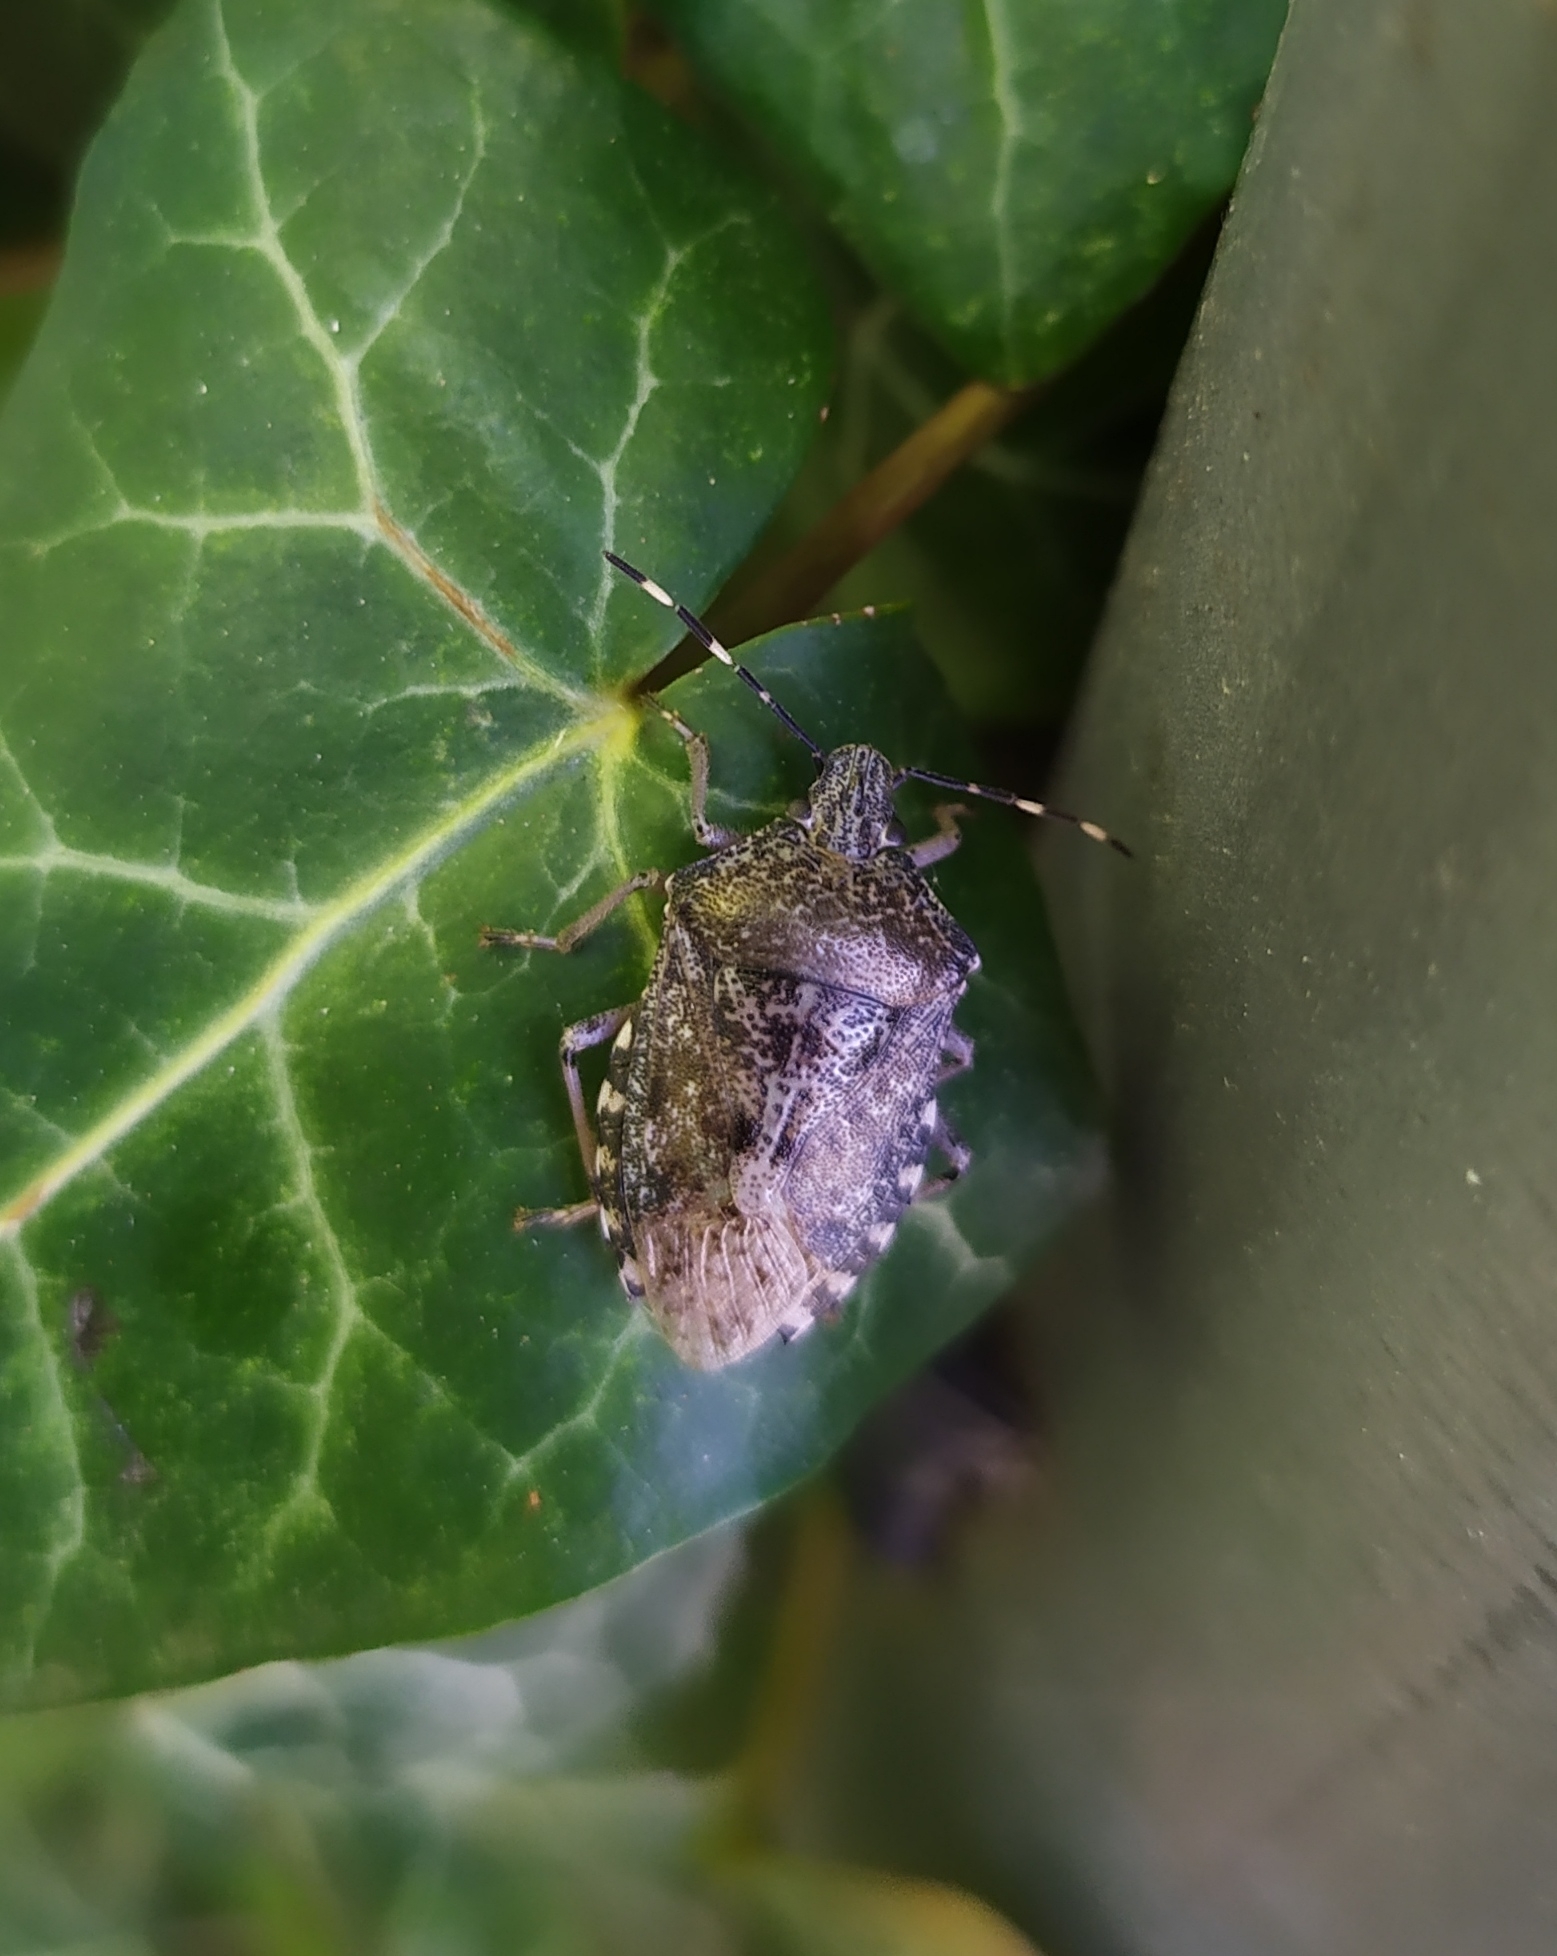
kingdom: Animalia
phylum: Arthropoda
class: Insecta
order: Hemiptera
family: Pentatomidae
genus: Rhaphigaster
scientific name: Rhaphigaster nebulosa
